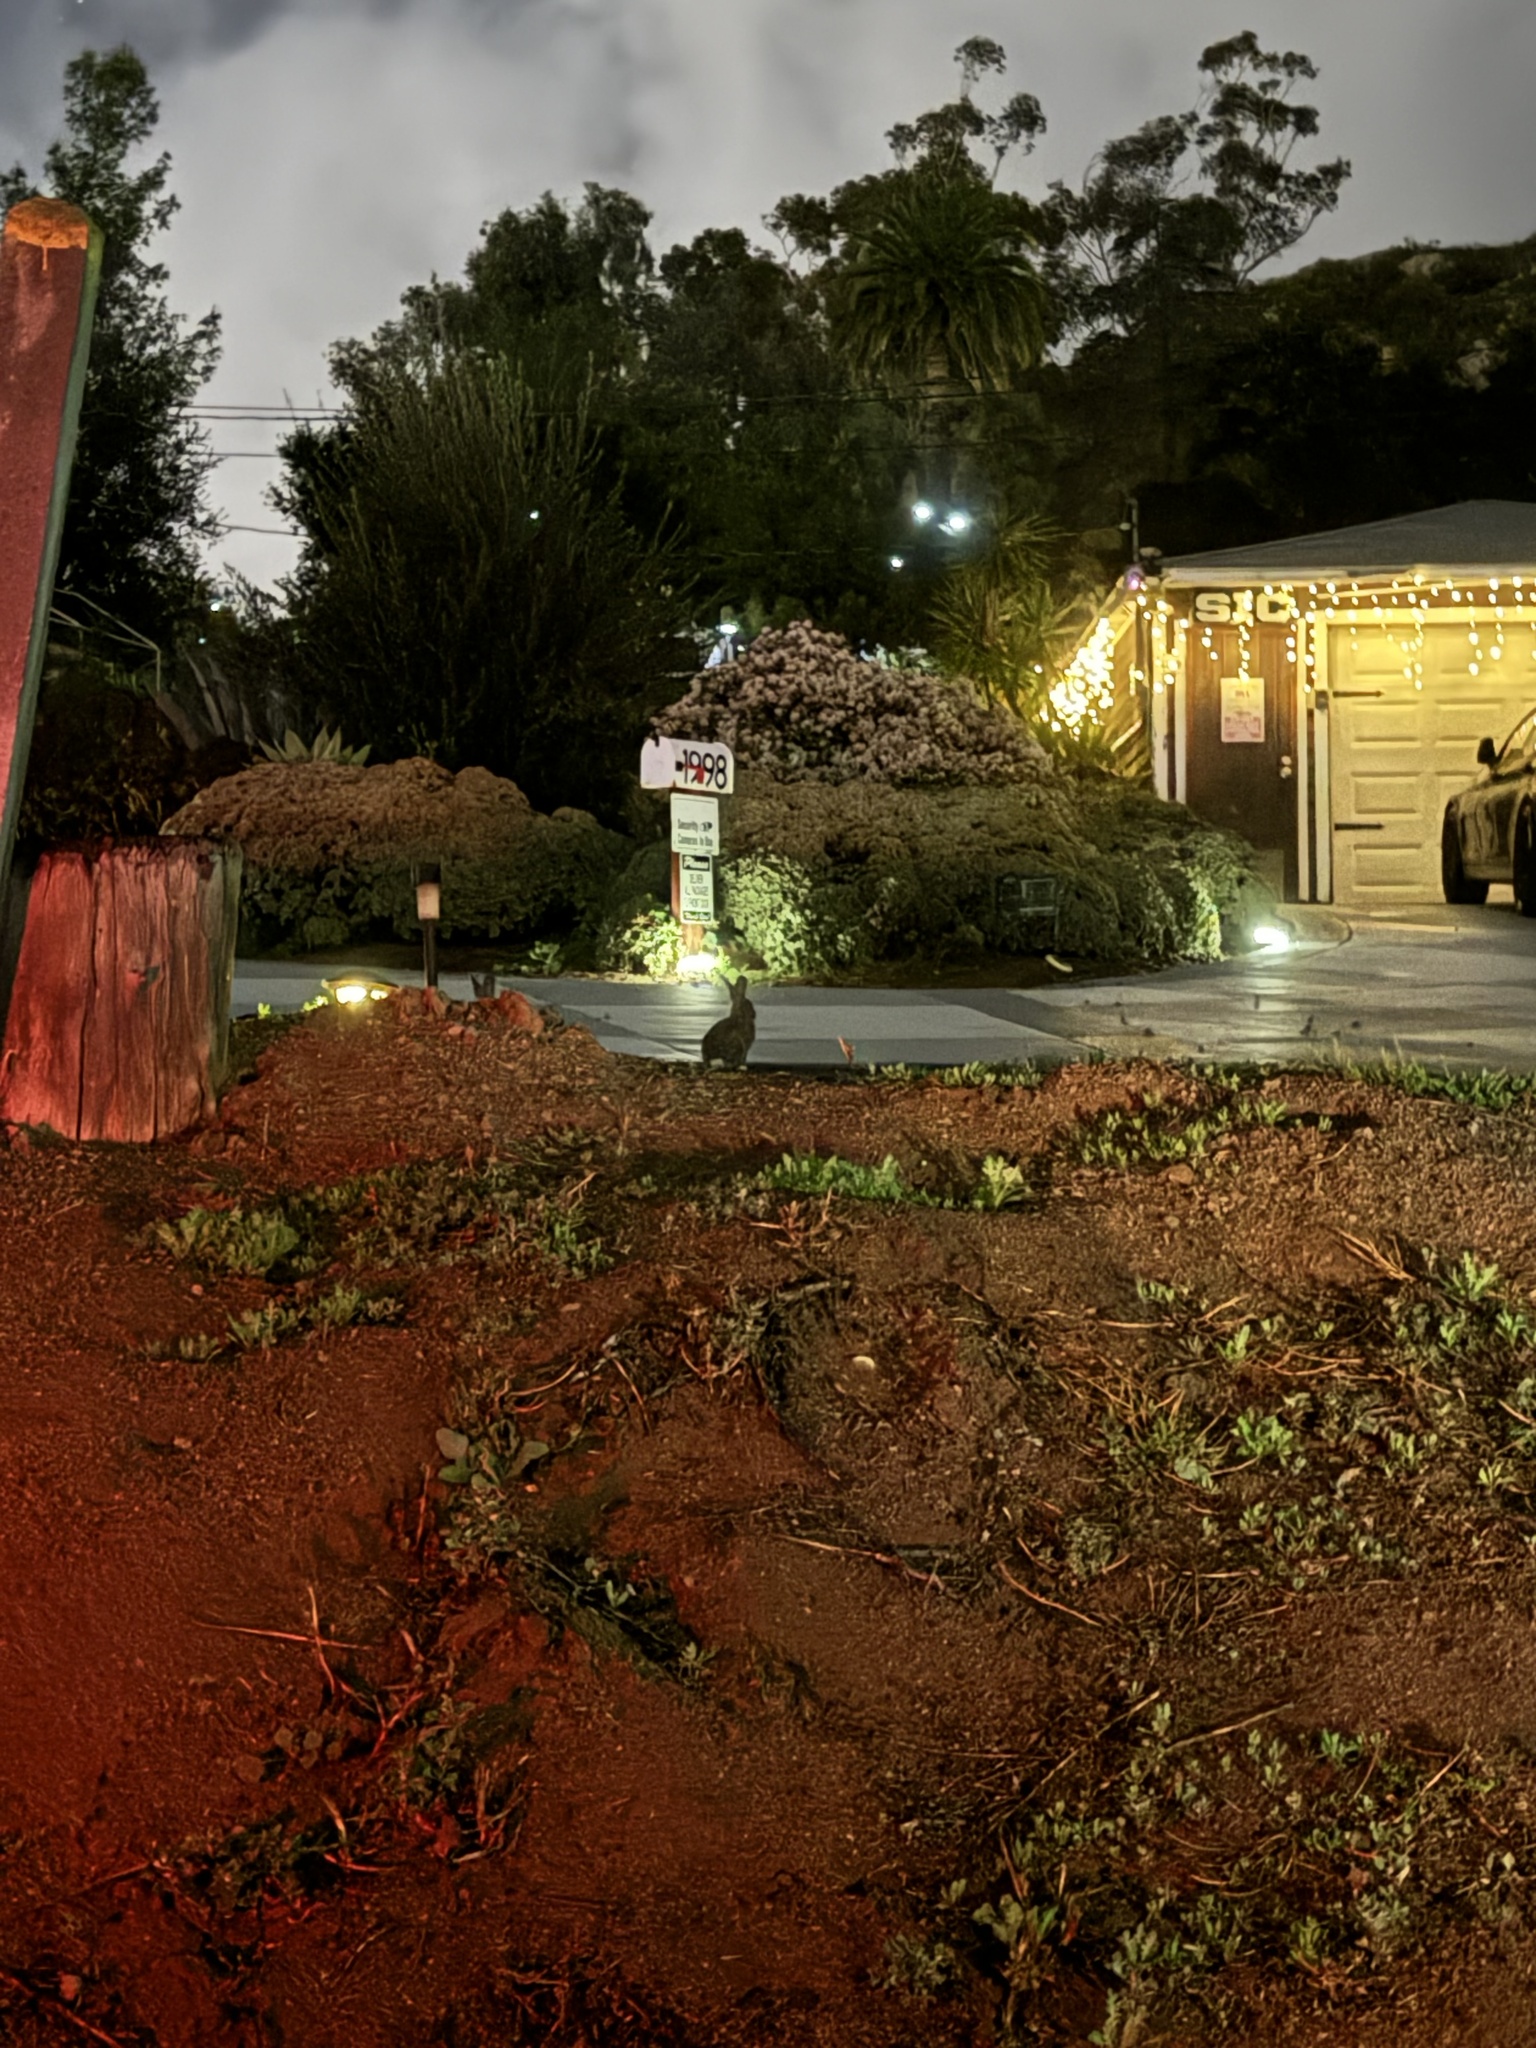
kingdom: Animalia
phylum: Chordata
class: Mammalia
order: Lagomorpha
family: Leporidae
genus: Sylvilagus
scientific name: Sylvilagus audubonii
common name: Desert cottontail
